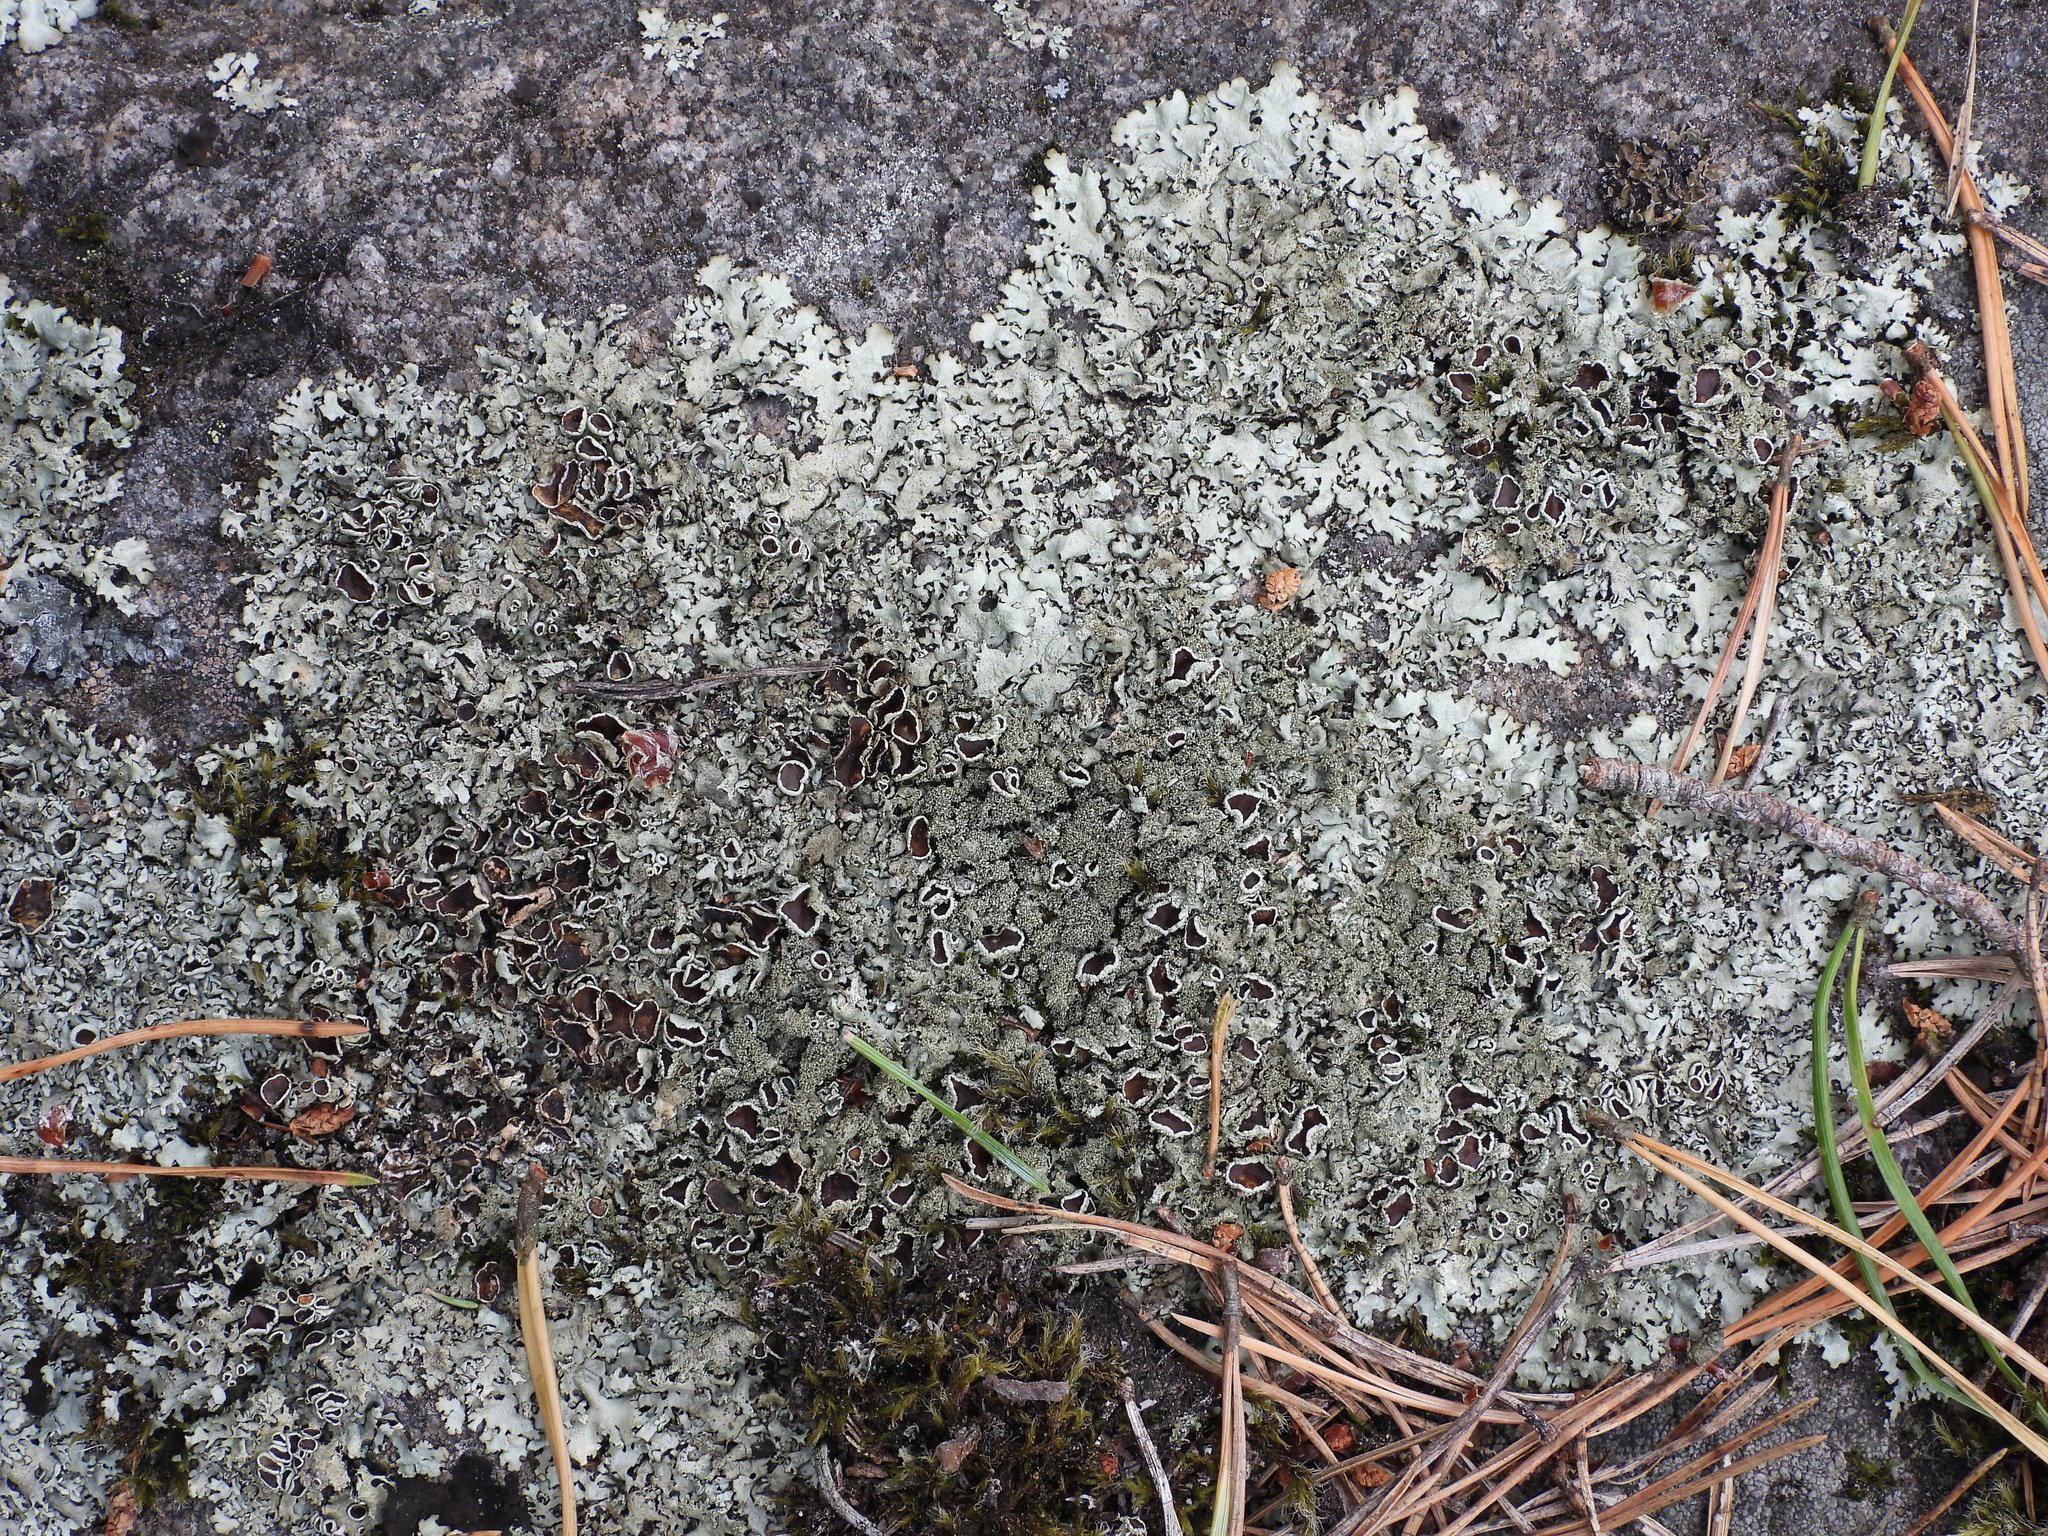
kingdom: Fungi
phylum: Ascomycota
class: Lecanoromycetes
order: Lecanorales
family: Parmeliaceae
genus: Xanthoparmelia
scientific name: Xanthoparmelia conspersa
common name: Peppered rock shield
